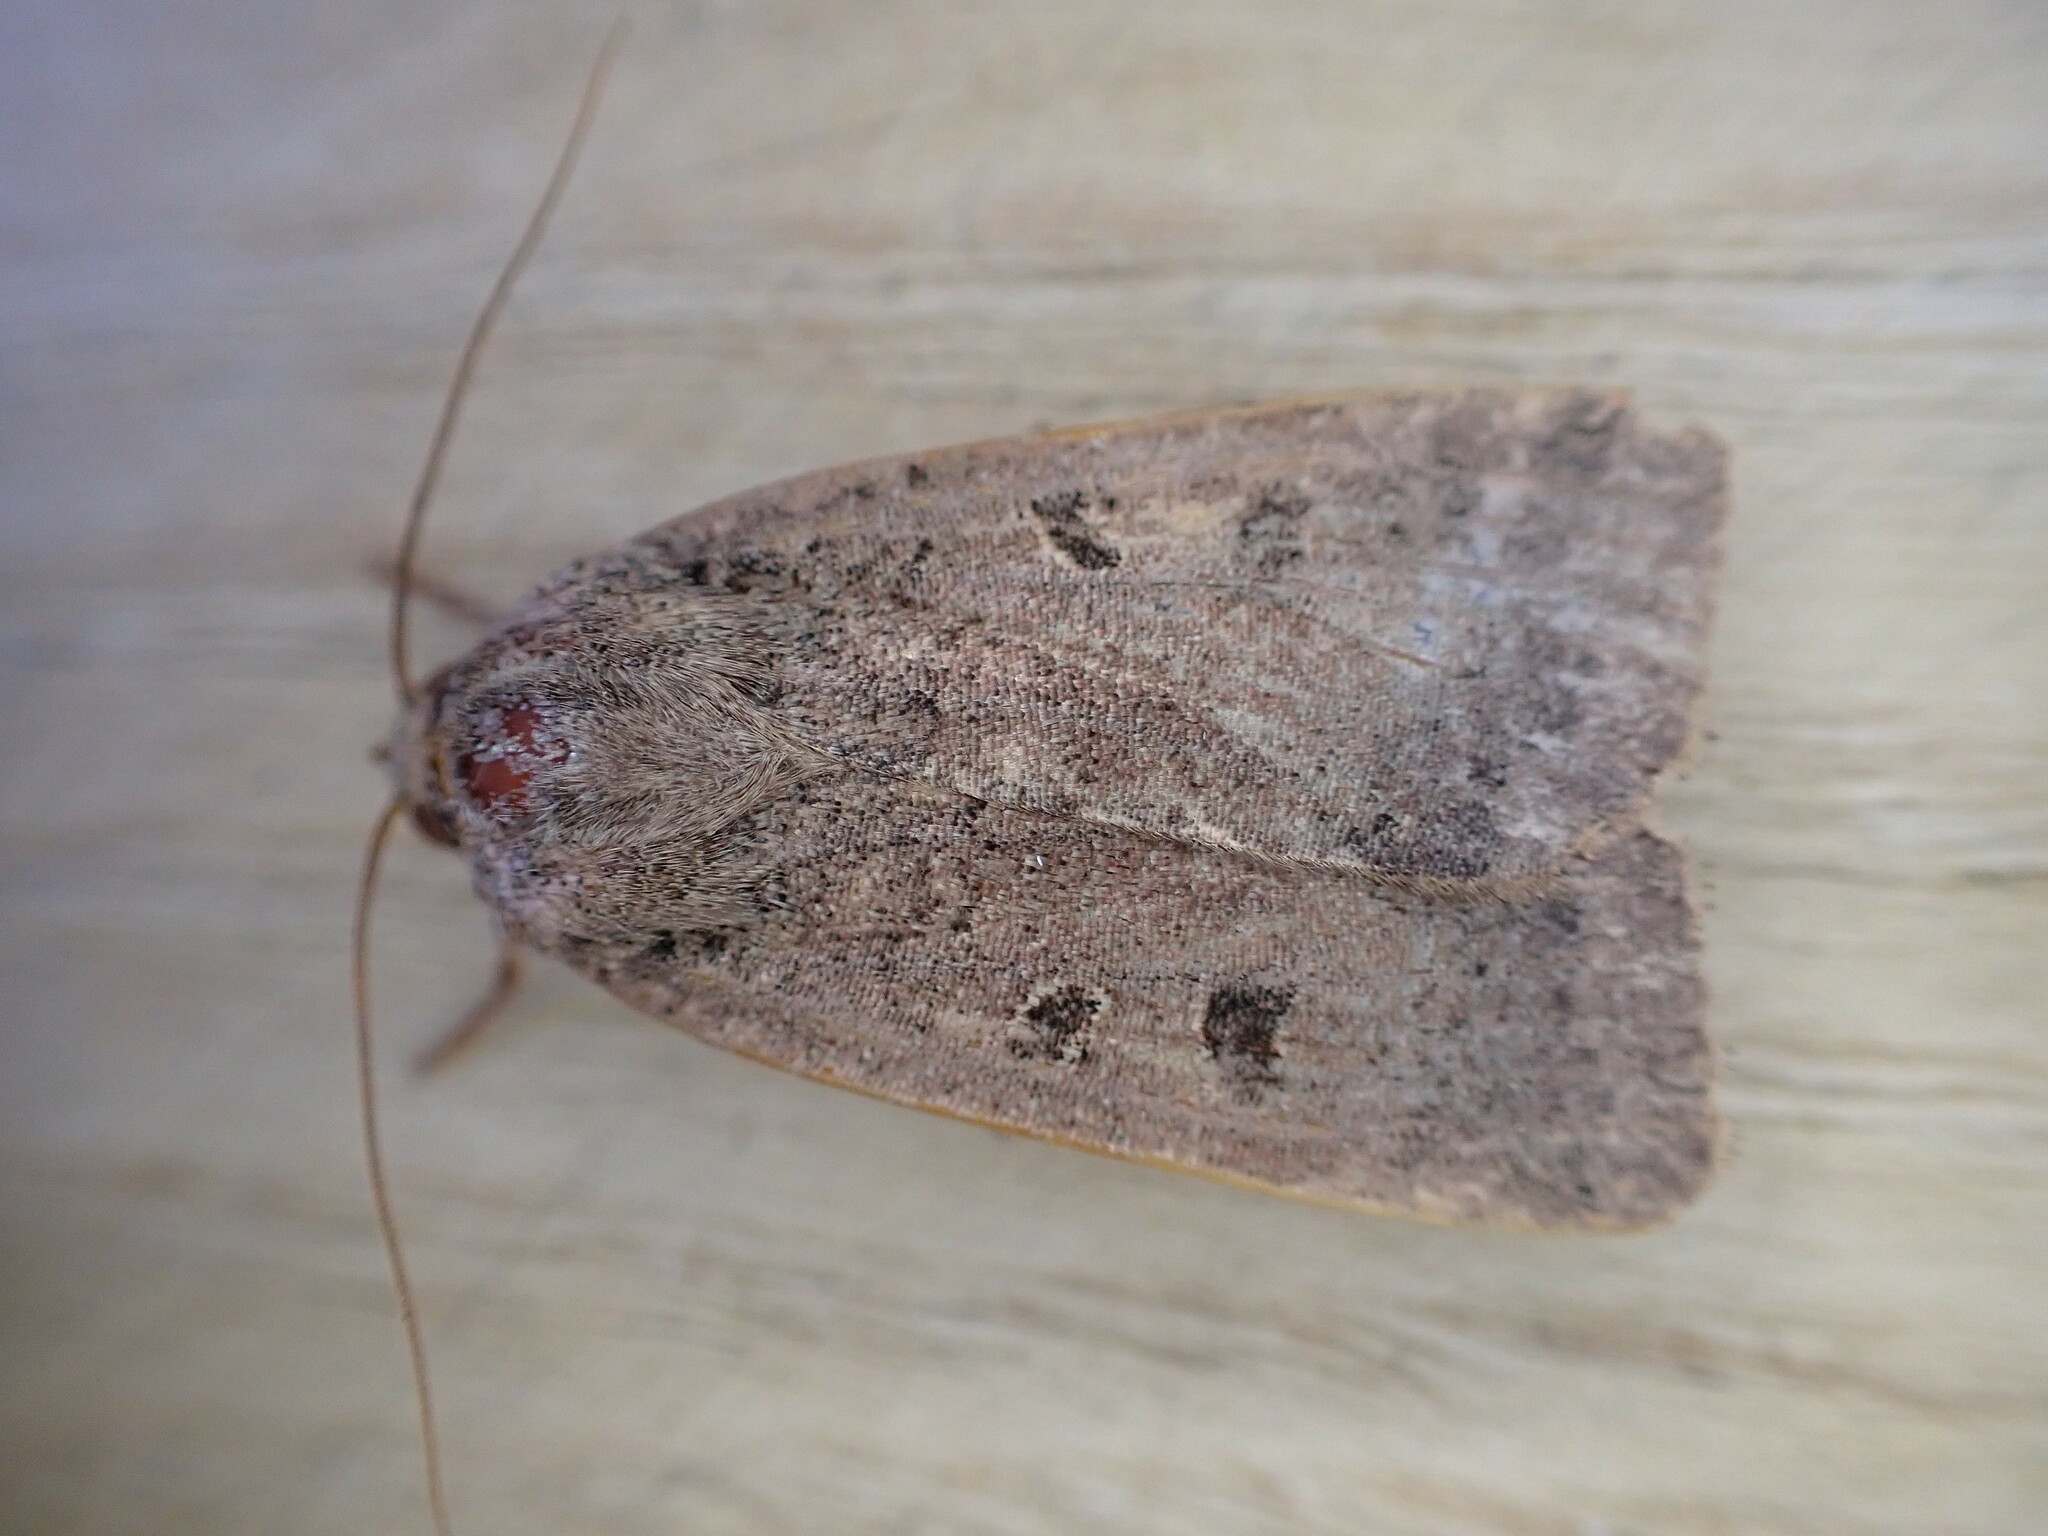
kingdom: Animalia
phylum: Arthropoda
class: Insecta
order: Lepidoptera
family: Noctuidae
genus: Noctua
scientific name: Noctua comes
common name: Lesser yellow underwing
